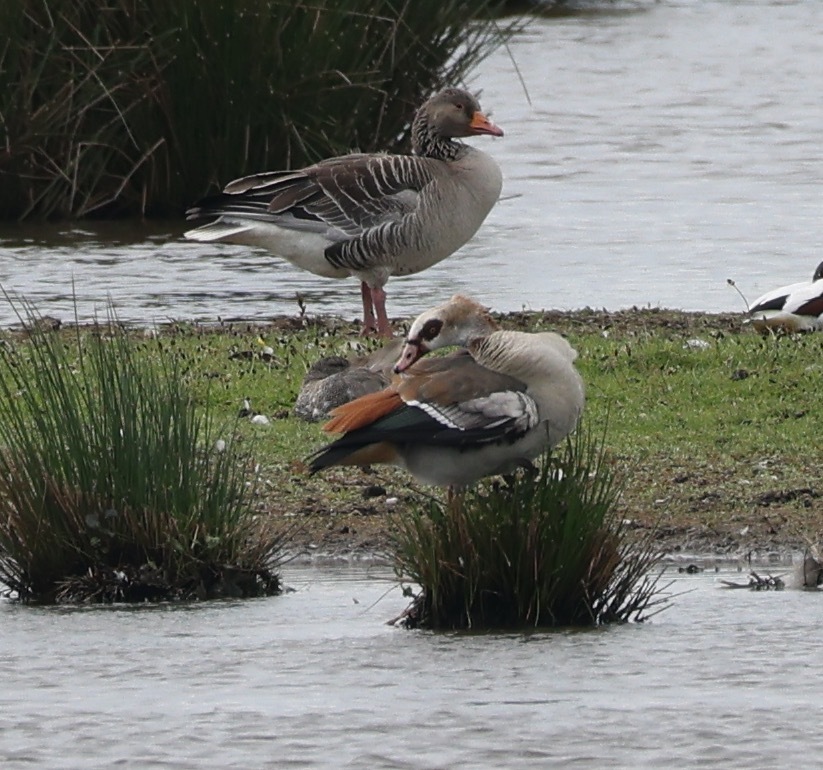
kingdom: Animalia
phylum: Chordata
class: Aves
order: Anseriformes
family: Anatidae
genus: Alopochen
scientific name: Alopochen aegyptiaca
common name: Egyptian goose
